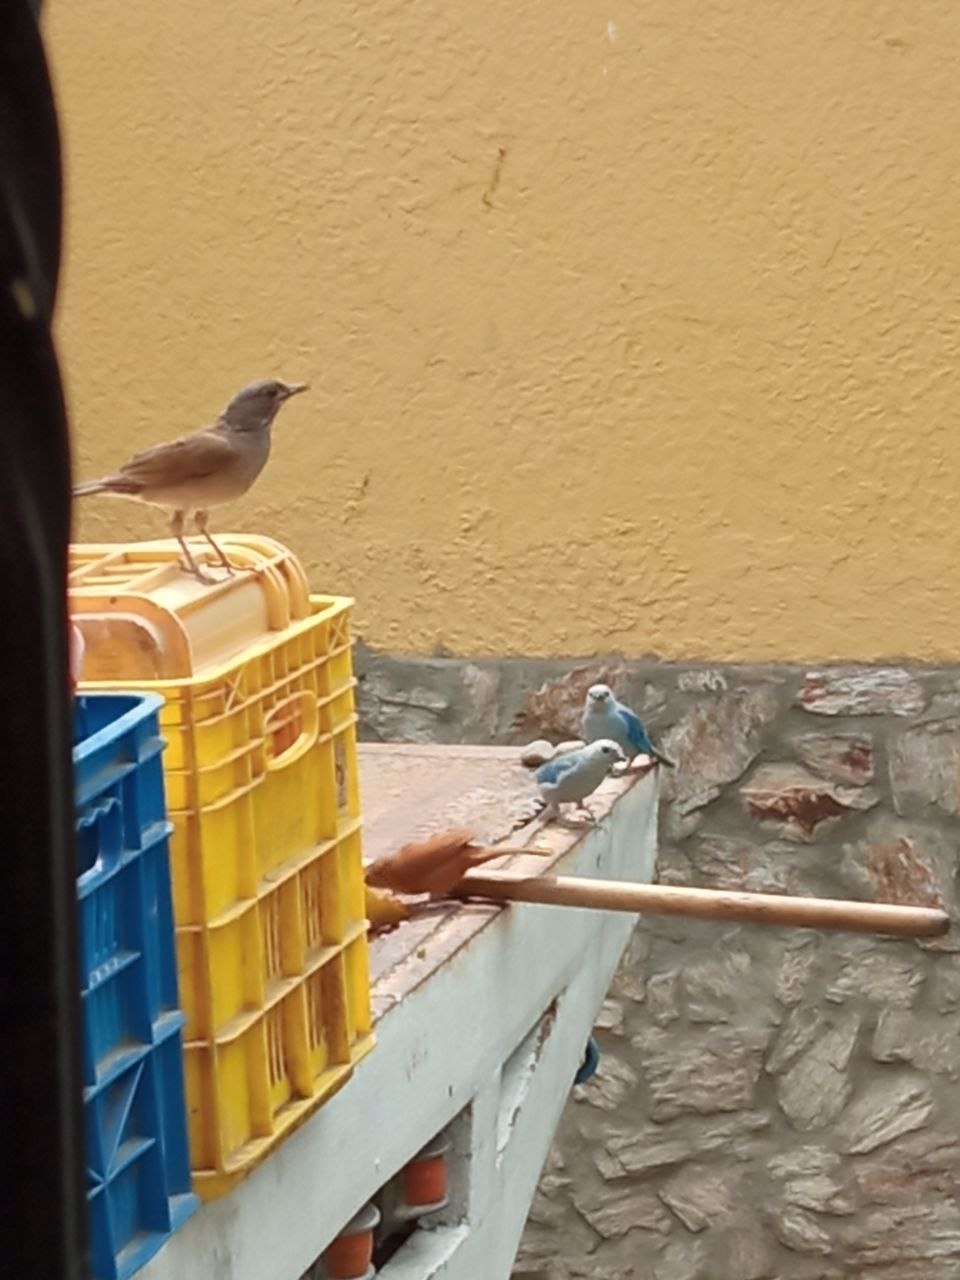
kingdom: Animalia
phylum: Chordata
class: Aves
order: Passeriformes
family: Turdidae
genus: Turdus
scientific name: Turdus leucomelas
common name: Pale-breasted thrush
